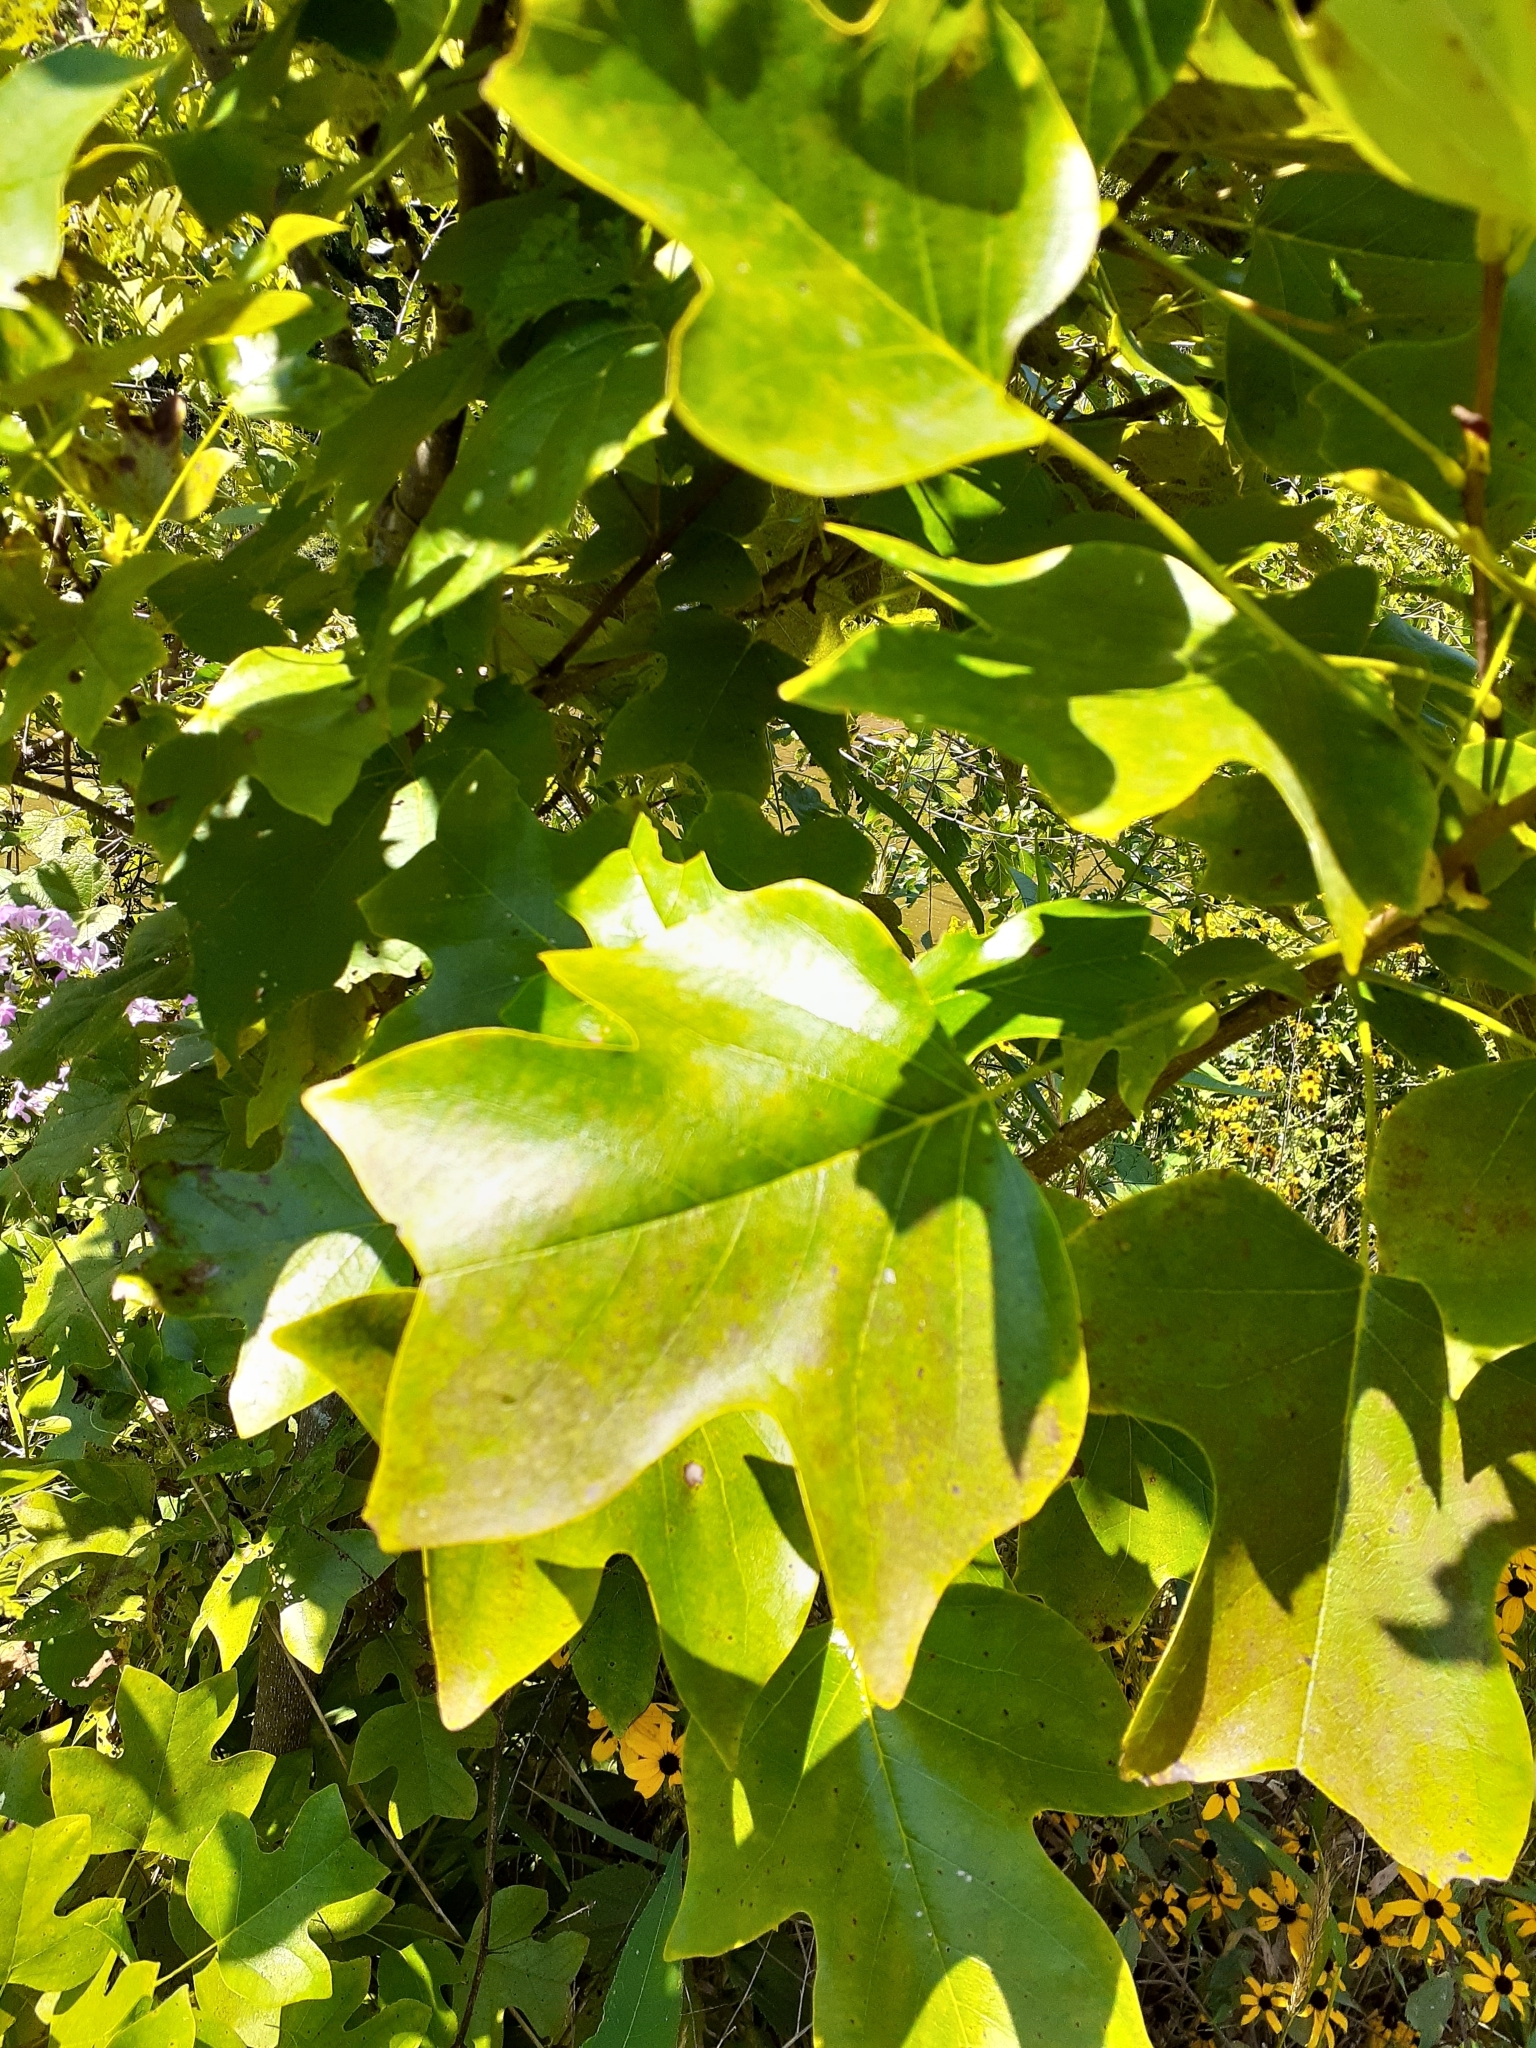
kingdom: Plantae
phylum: Tracheophyta
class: Magnoliopsida
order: Magnoliales
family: Magnoliaceae
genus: Liriodendron
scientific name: Liriodendron tulipifera
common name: Tulip tree
